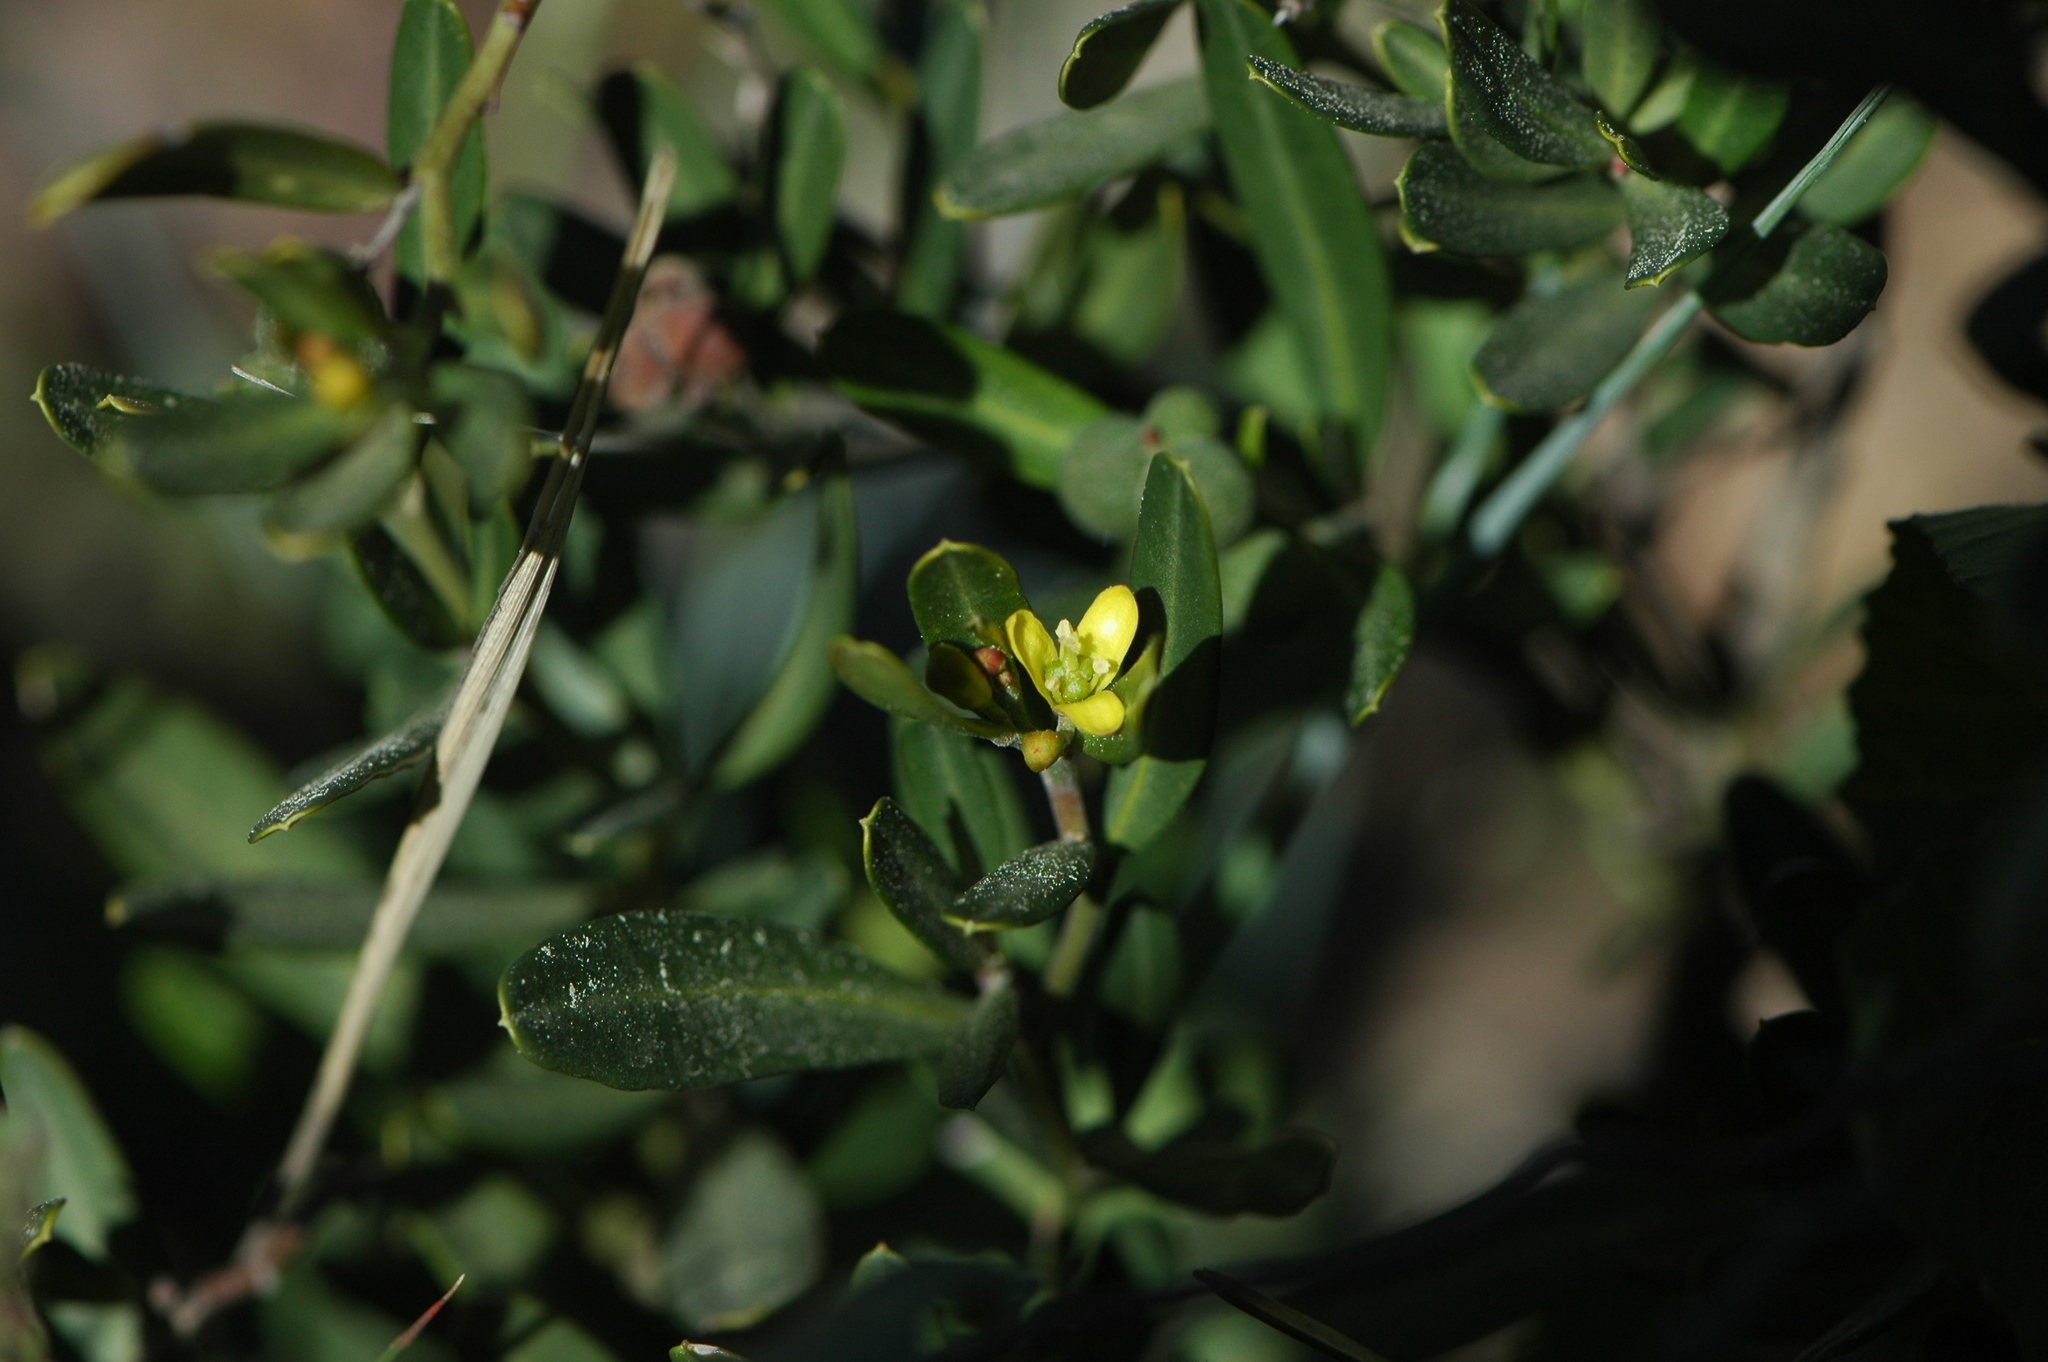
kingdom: Plantae
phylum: Tracheophyta
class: Magnoliopsida
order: Sapindales
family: Rutaceae
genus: Cneorum
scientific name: Cneorum tricoccon
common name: Spurge olive
